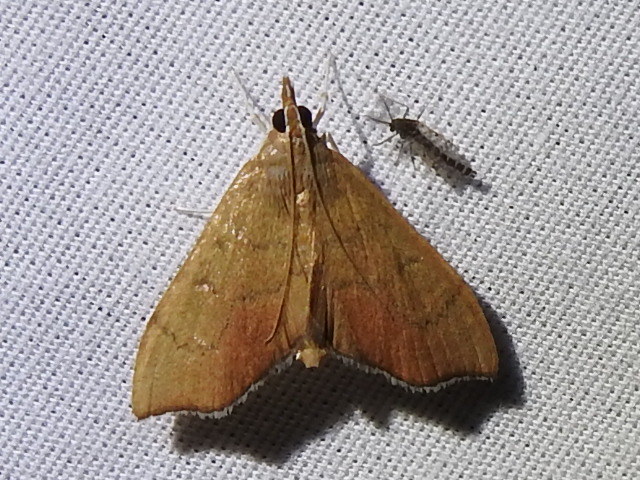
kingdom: Animalia
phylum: Arthropoda
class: Insecta
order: Lepidoptera
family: Crambidae
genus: Sericoplaga
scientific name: Sericoplaga externalis
